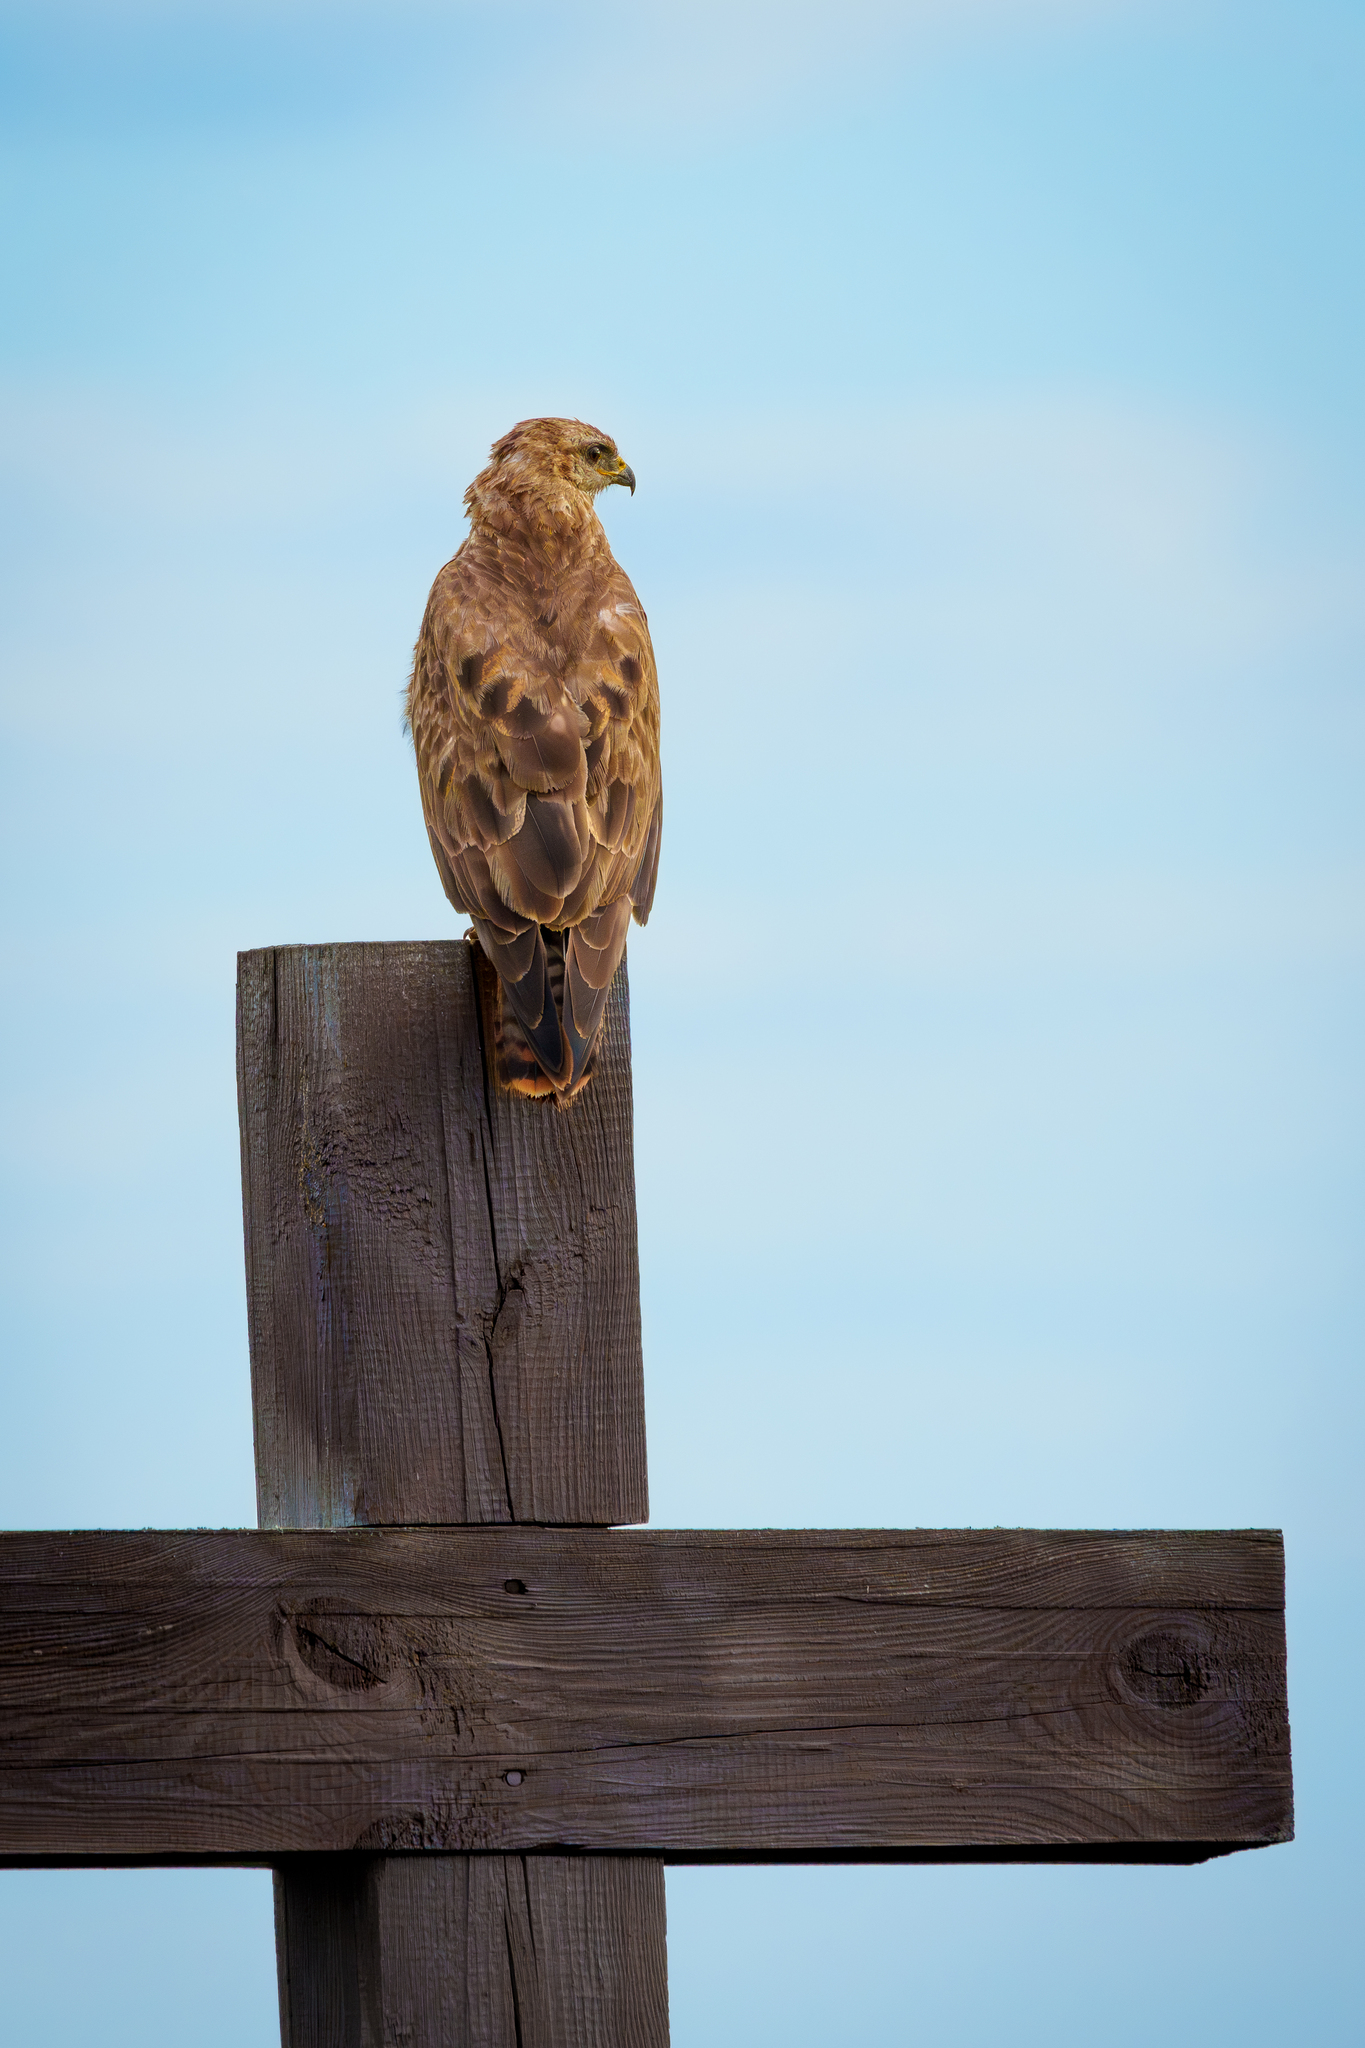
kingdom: Animalia
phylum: Chordata
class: Aves
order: Accipitriformes
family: Accipitridae
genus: Buteo
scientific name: Buteo buteo
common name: Common buzzard
